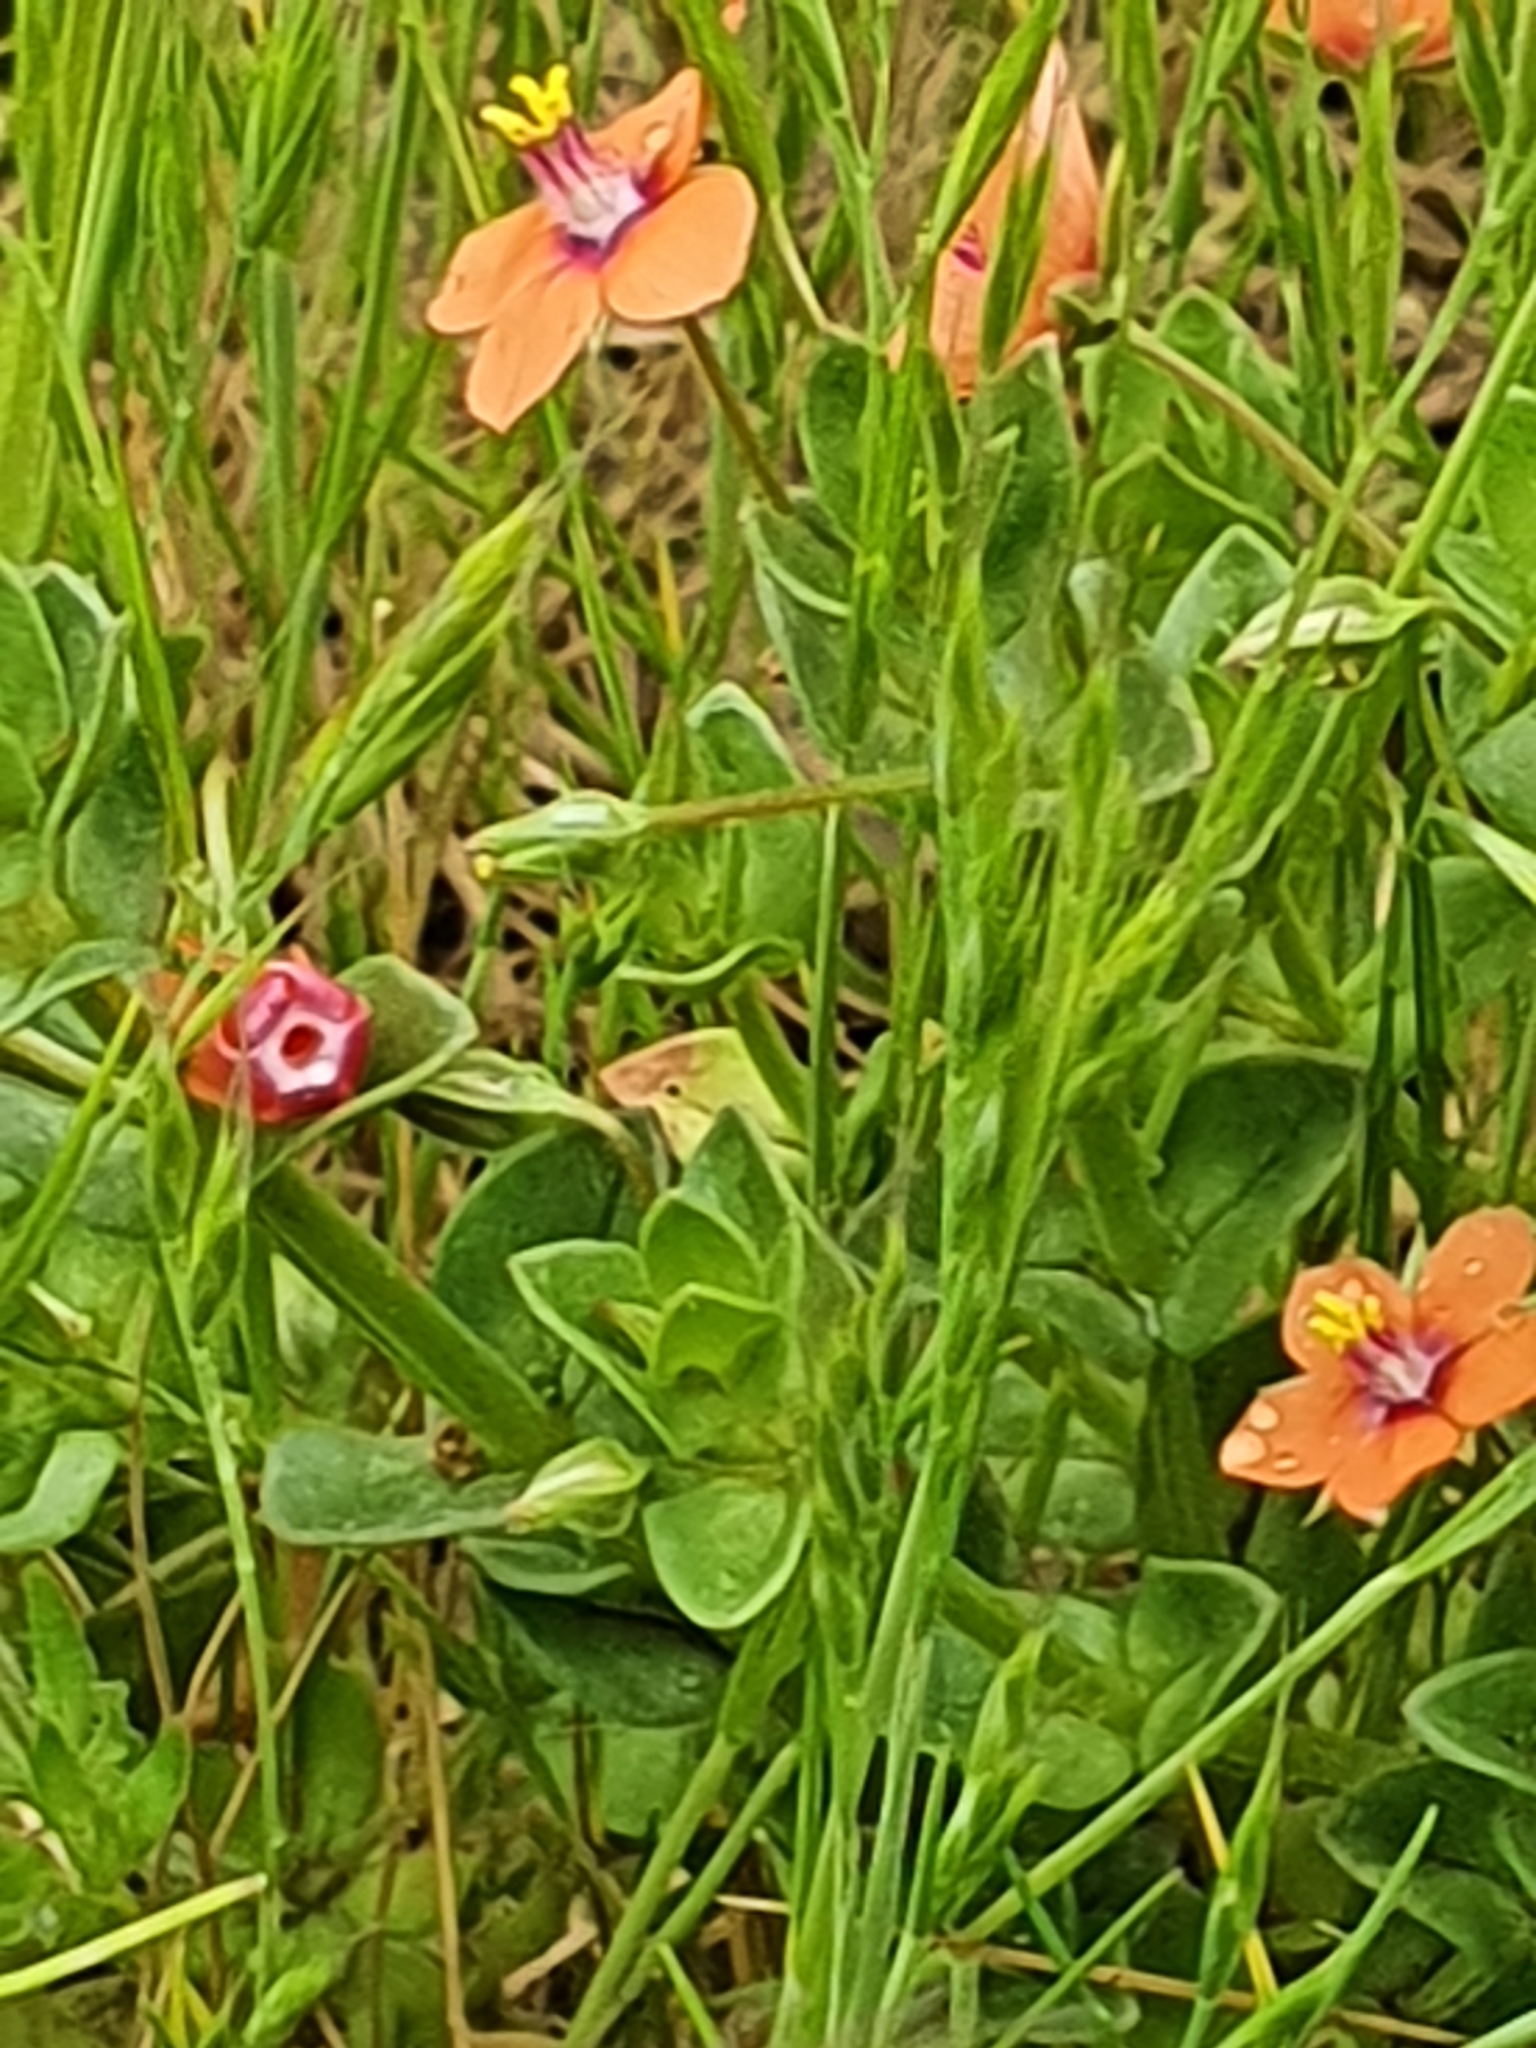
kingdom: Plantae
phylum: Tracheophyta
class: Magnoliopsida
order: Ericales
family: Primulaceae
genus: Lysimachia
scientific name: Lysimachia arvensis
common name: Scarlet pimpernel
